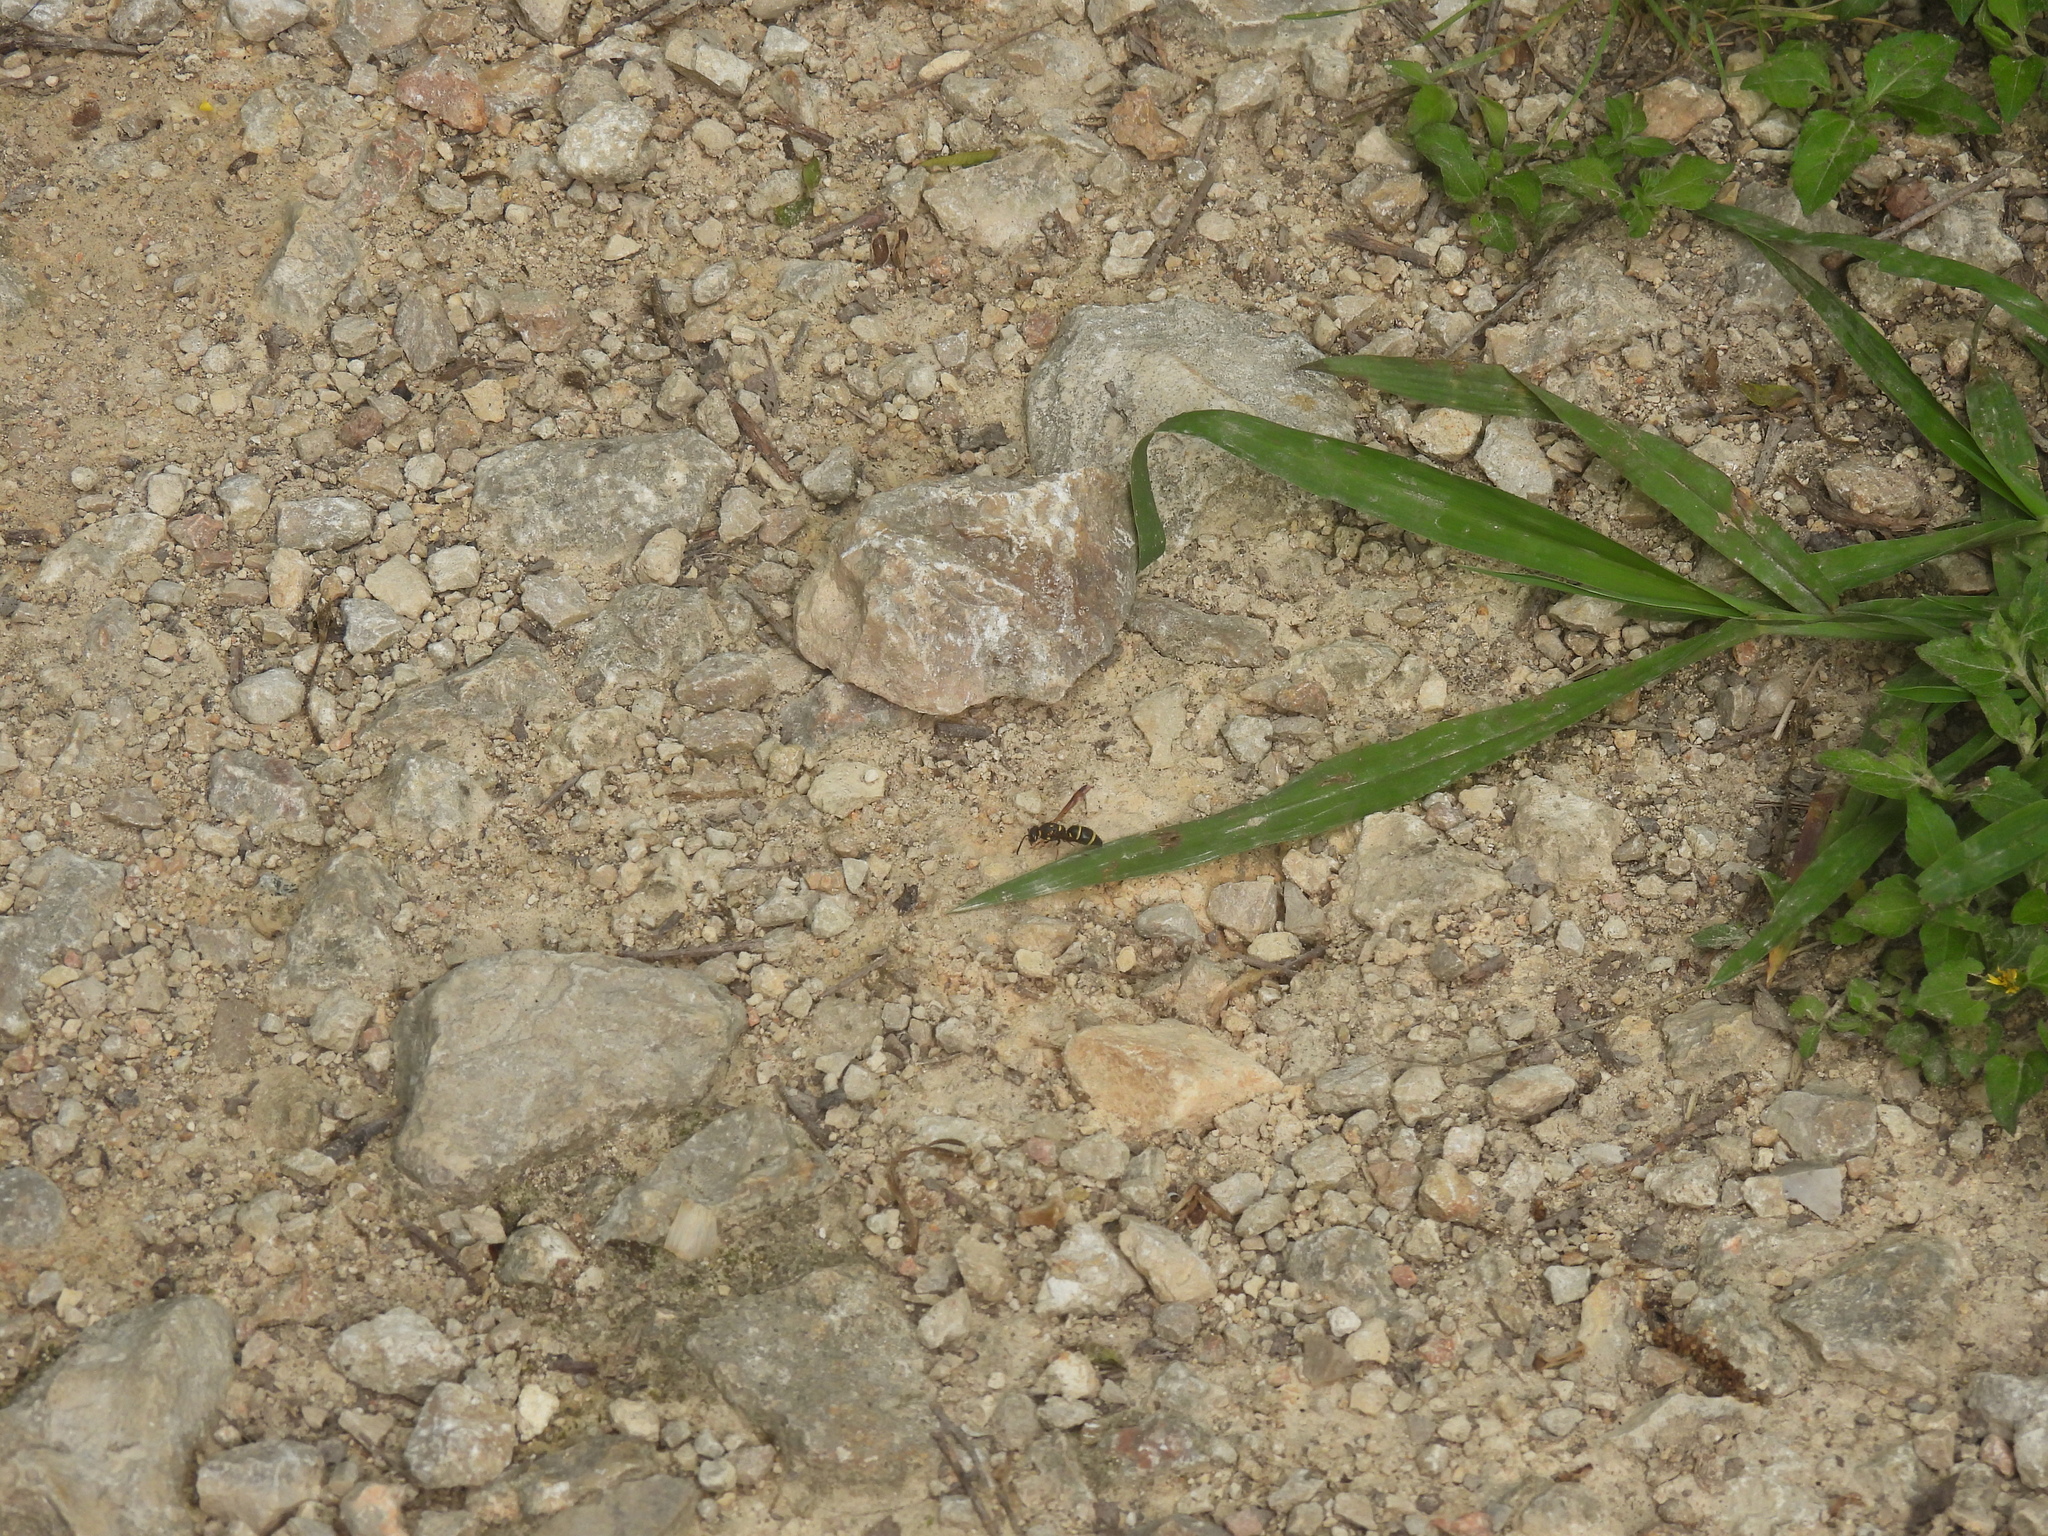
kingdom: Animalia
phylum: Arthropoda
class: Insecta
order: Hymenoptera
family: Eumenidae
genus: Parancistrocerus
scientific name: Parancistrocerus fulvipes
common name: Potter wasp
